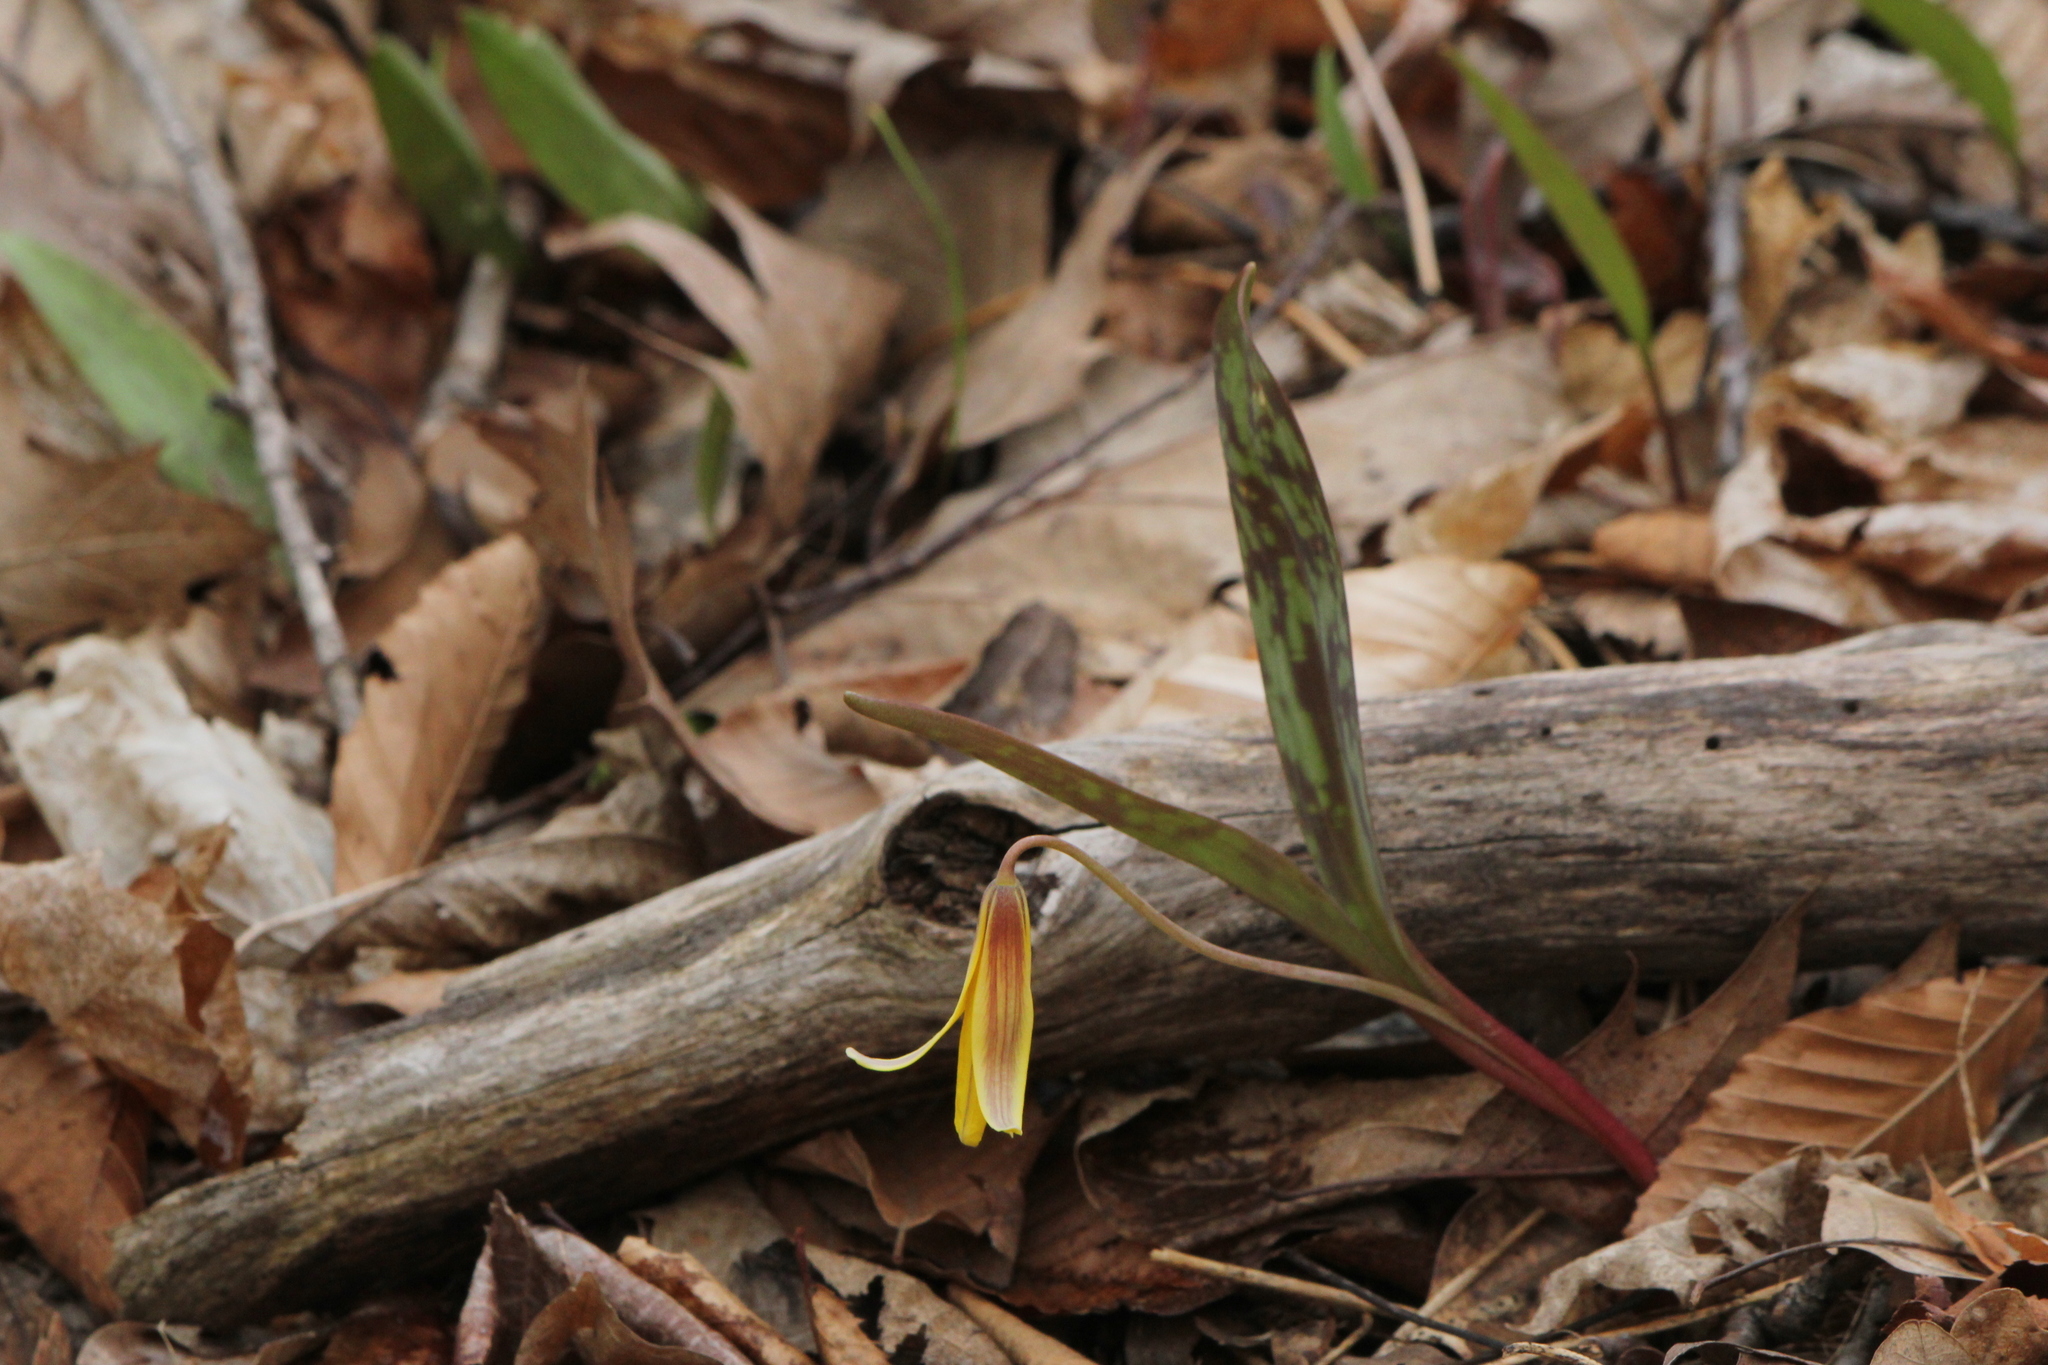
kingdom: Plantae
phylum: Tracheophyta
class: Liliopsida
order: Liliales
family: Liliaceae
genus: Erythronium
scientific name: Erythronium americanum
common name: Yellow adder's-tongue
